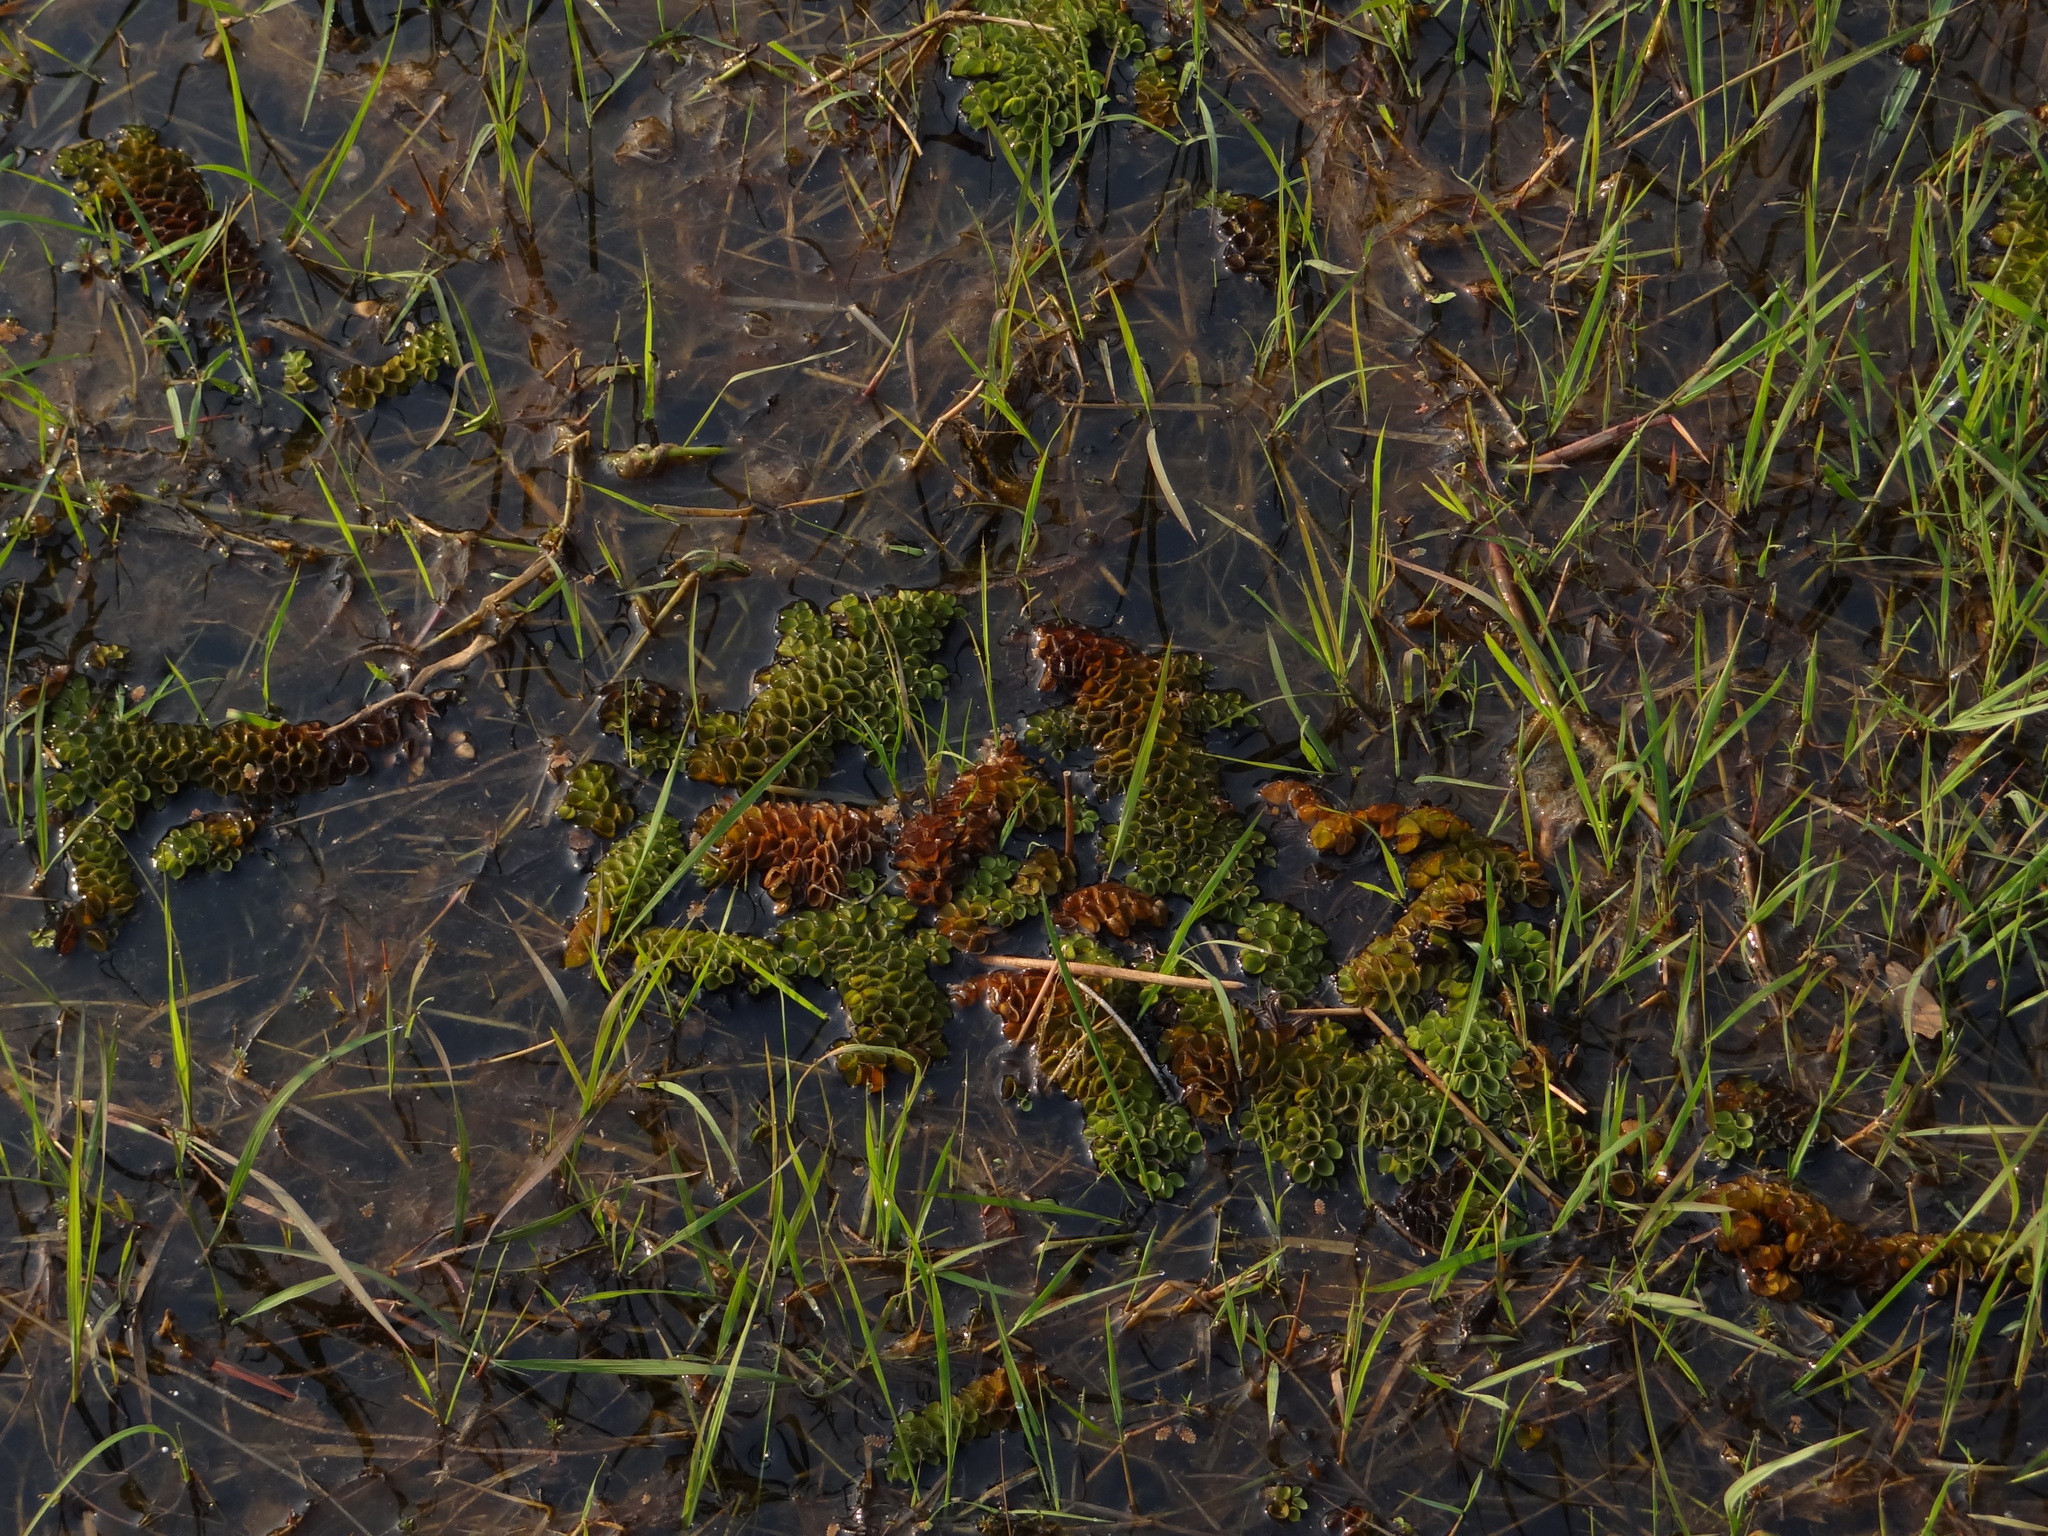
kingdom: Plantae
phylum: Tracheophyta
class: Polypodiopsida
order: Salviniales
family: Salviniaceae
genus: Salvinia
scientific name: Salvinia cucullata
